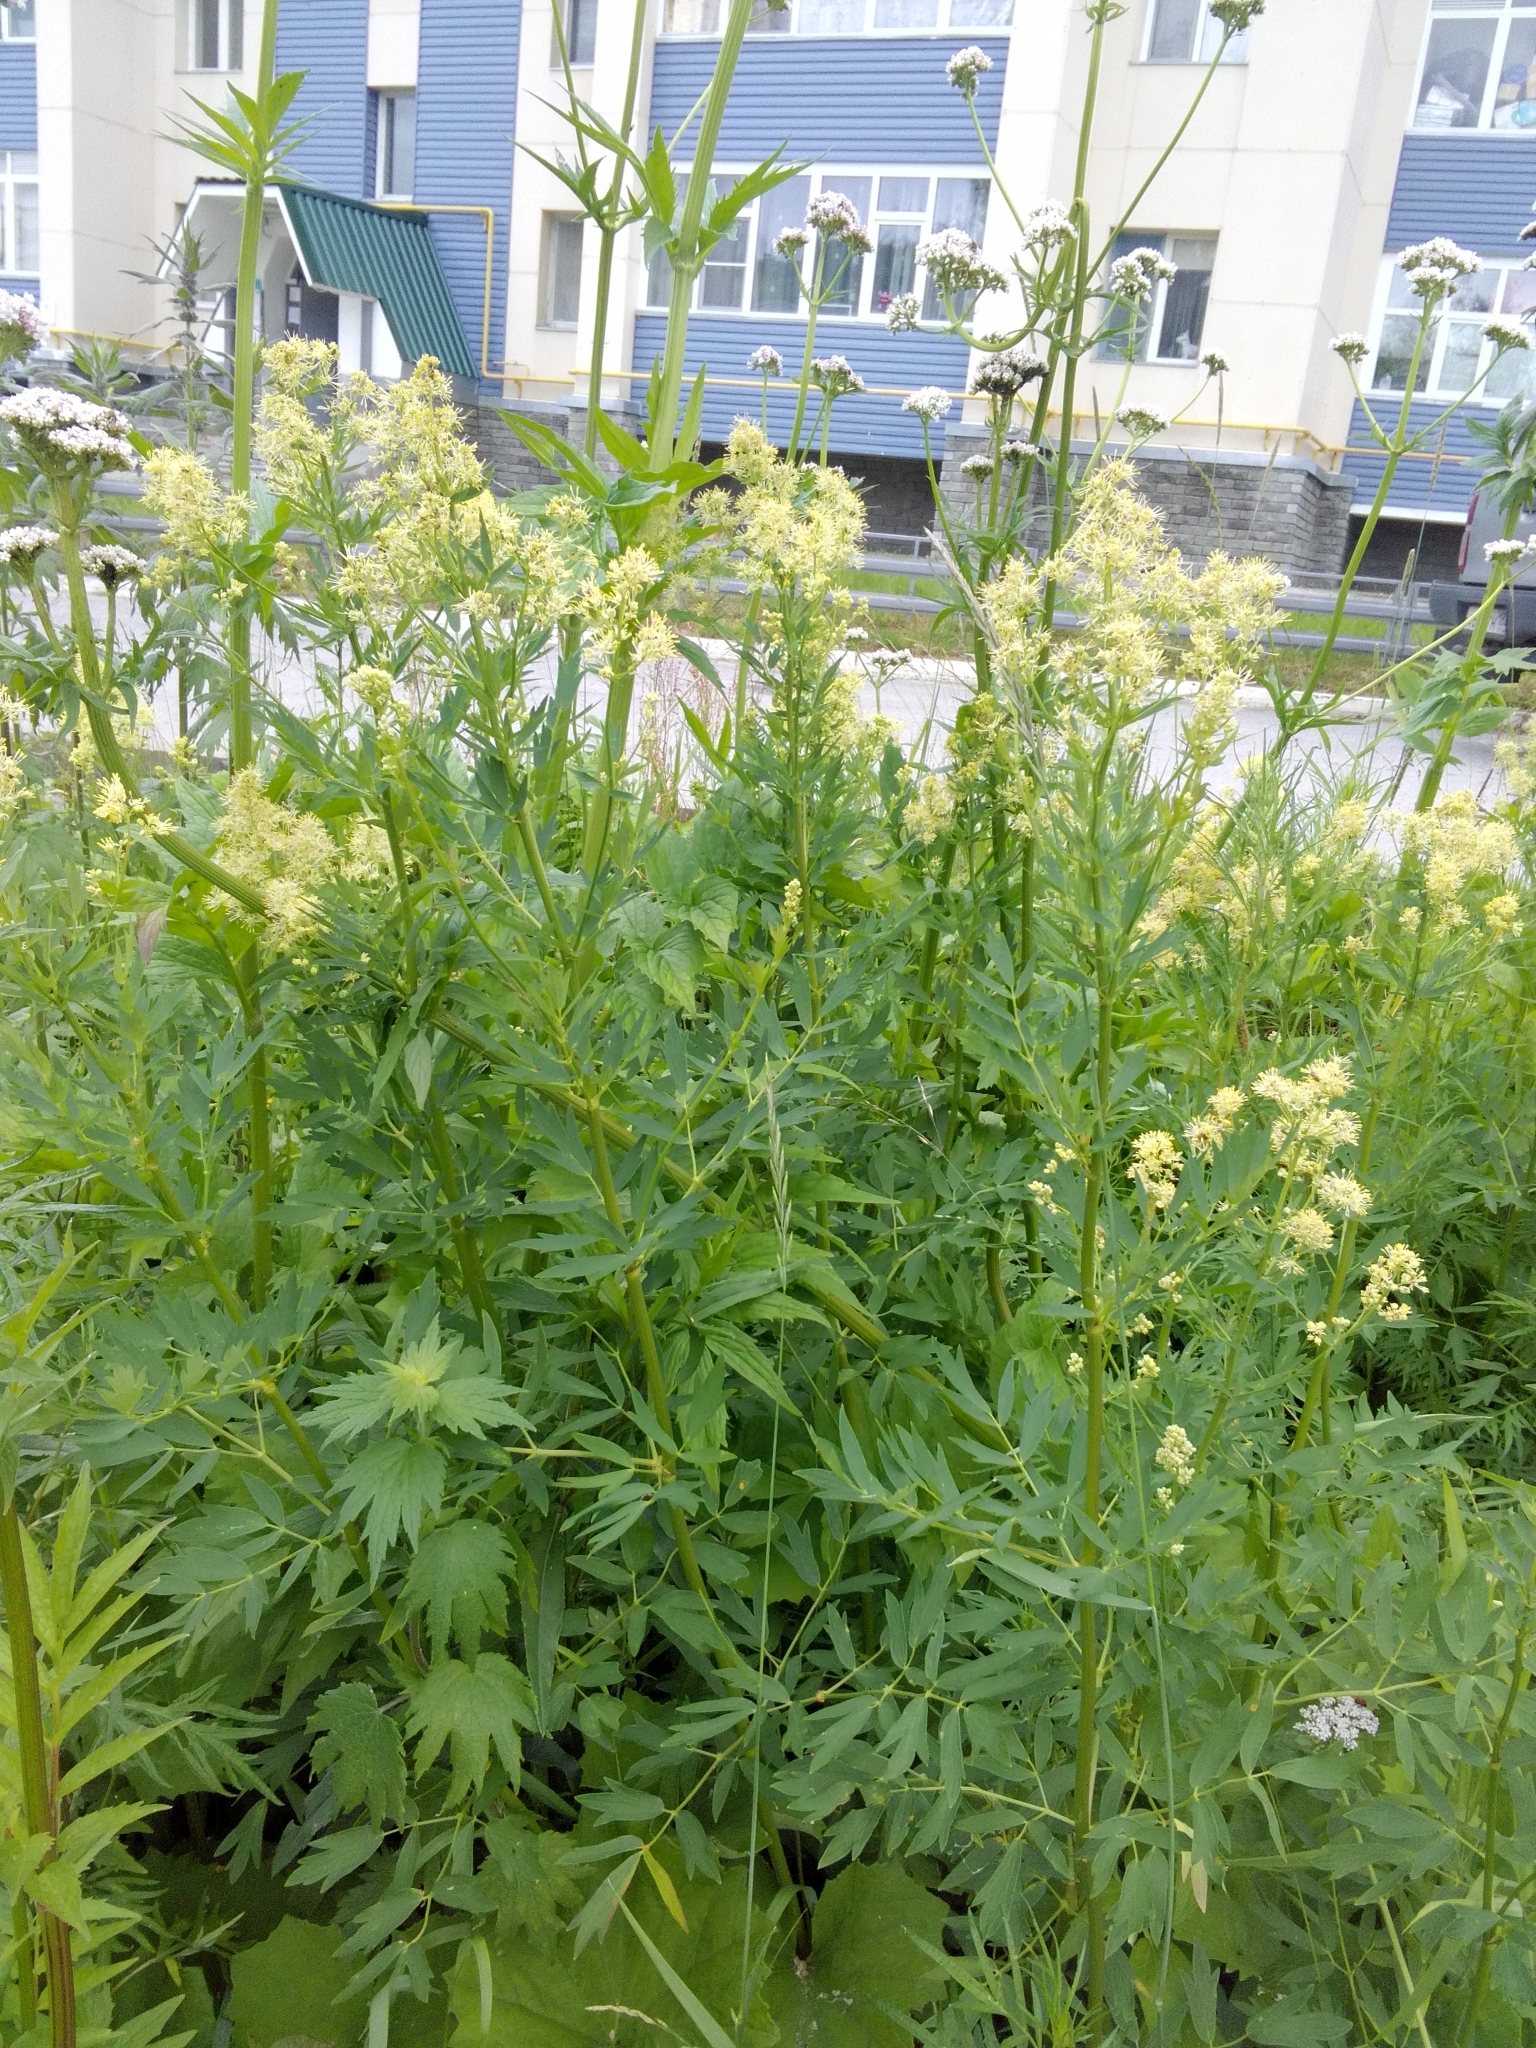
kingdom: Plantae
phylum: Tracheophyta
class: Magnoliopsida
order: Ranunculales
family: Ranunculaceae
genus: Thalictrum
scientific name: Thalictrum flavum
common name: Common meadow-rue
